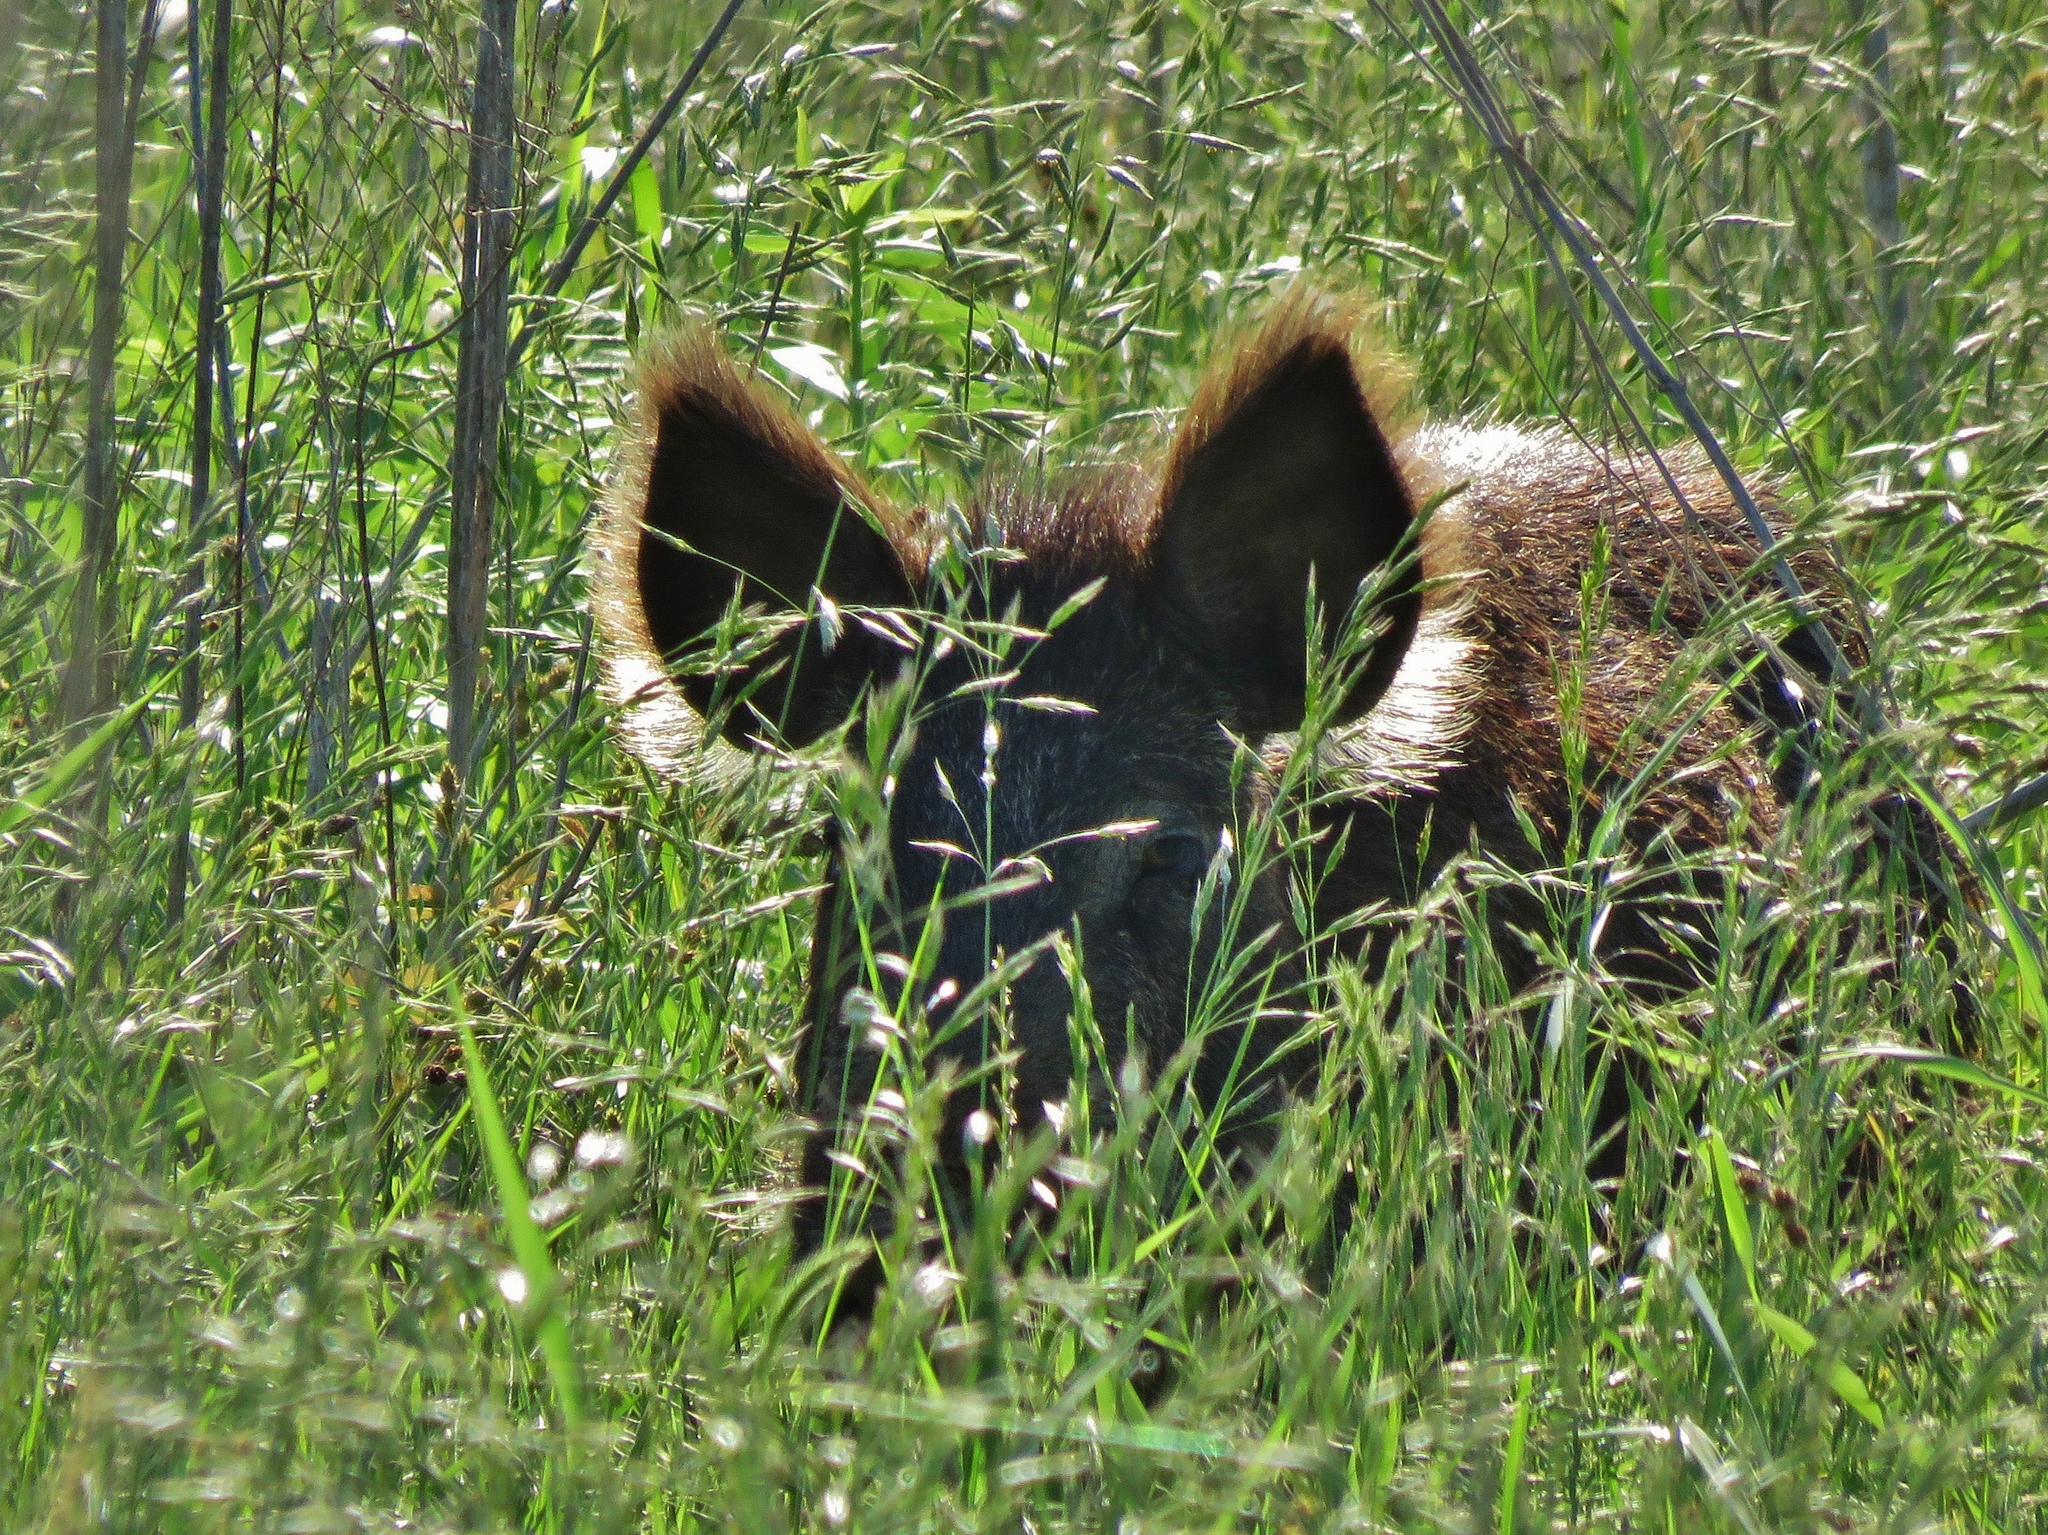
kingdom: Animalia
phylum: Chordata
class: Mammalia
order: Artiodactyla
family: Suidae
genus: Sus
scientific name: Sus scrofa
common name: Wild boar
